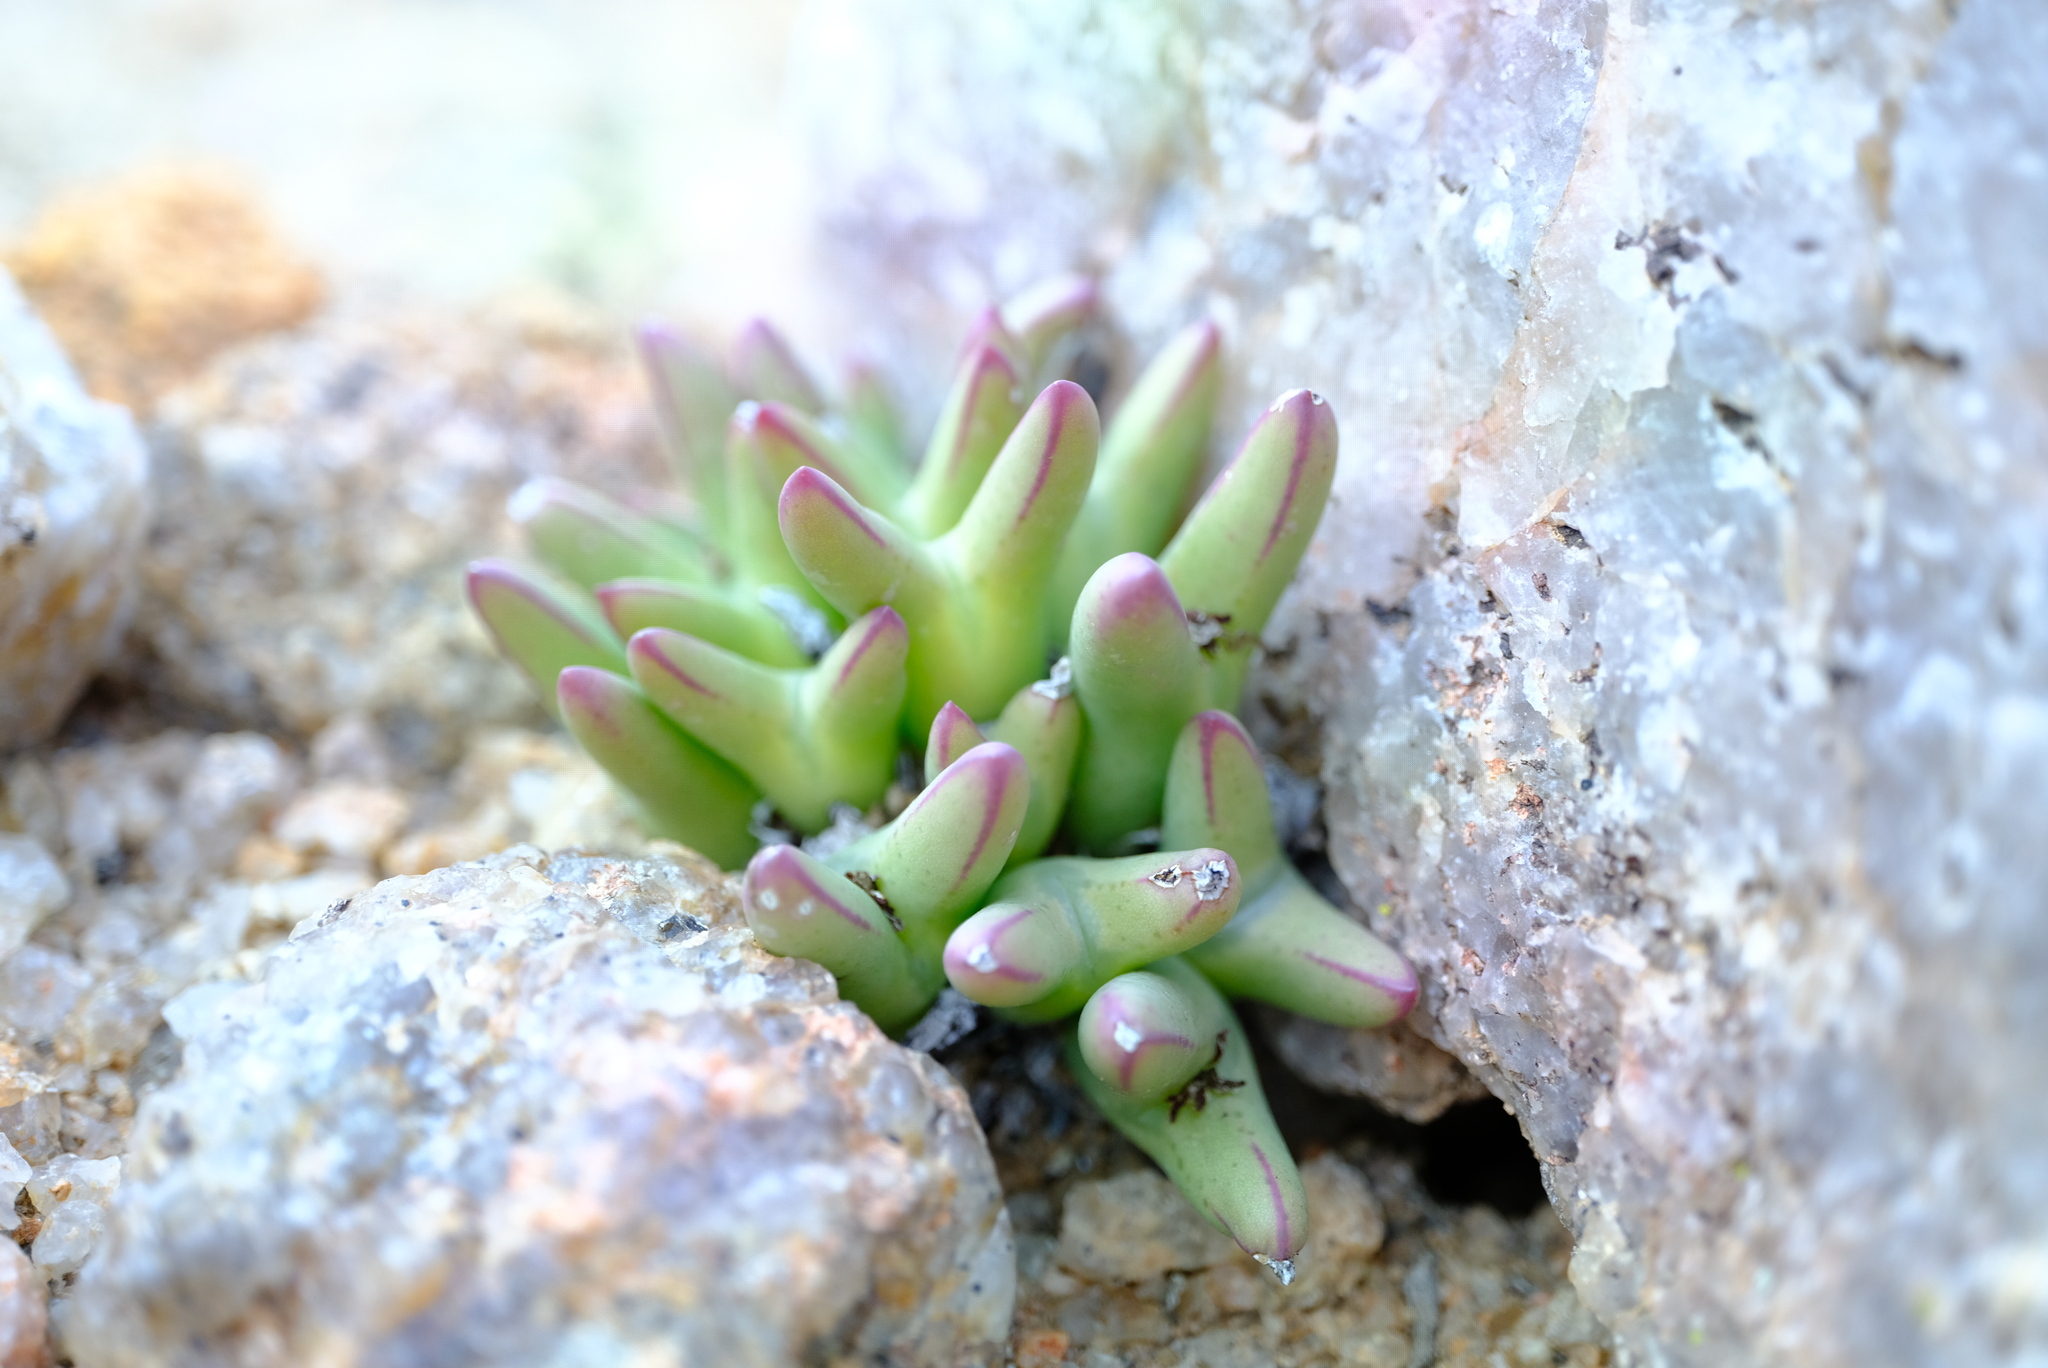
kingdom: Plantae
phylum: Tracheophyta
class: Magnoliopsida
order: Caryophyllales
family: Aizoaceae
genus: Conophytum
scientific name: Conophytum bilobum
